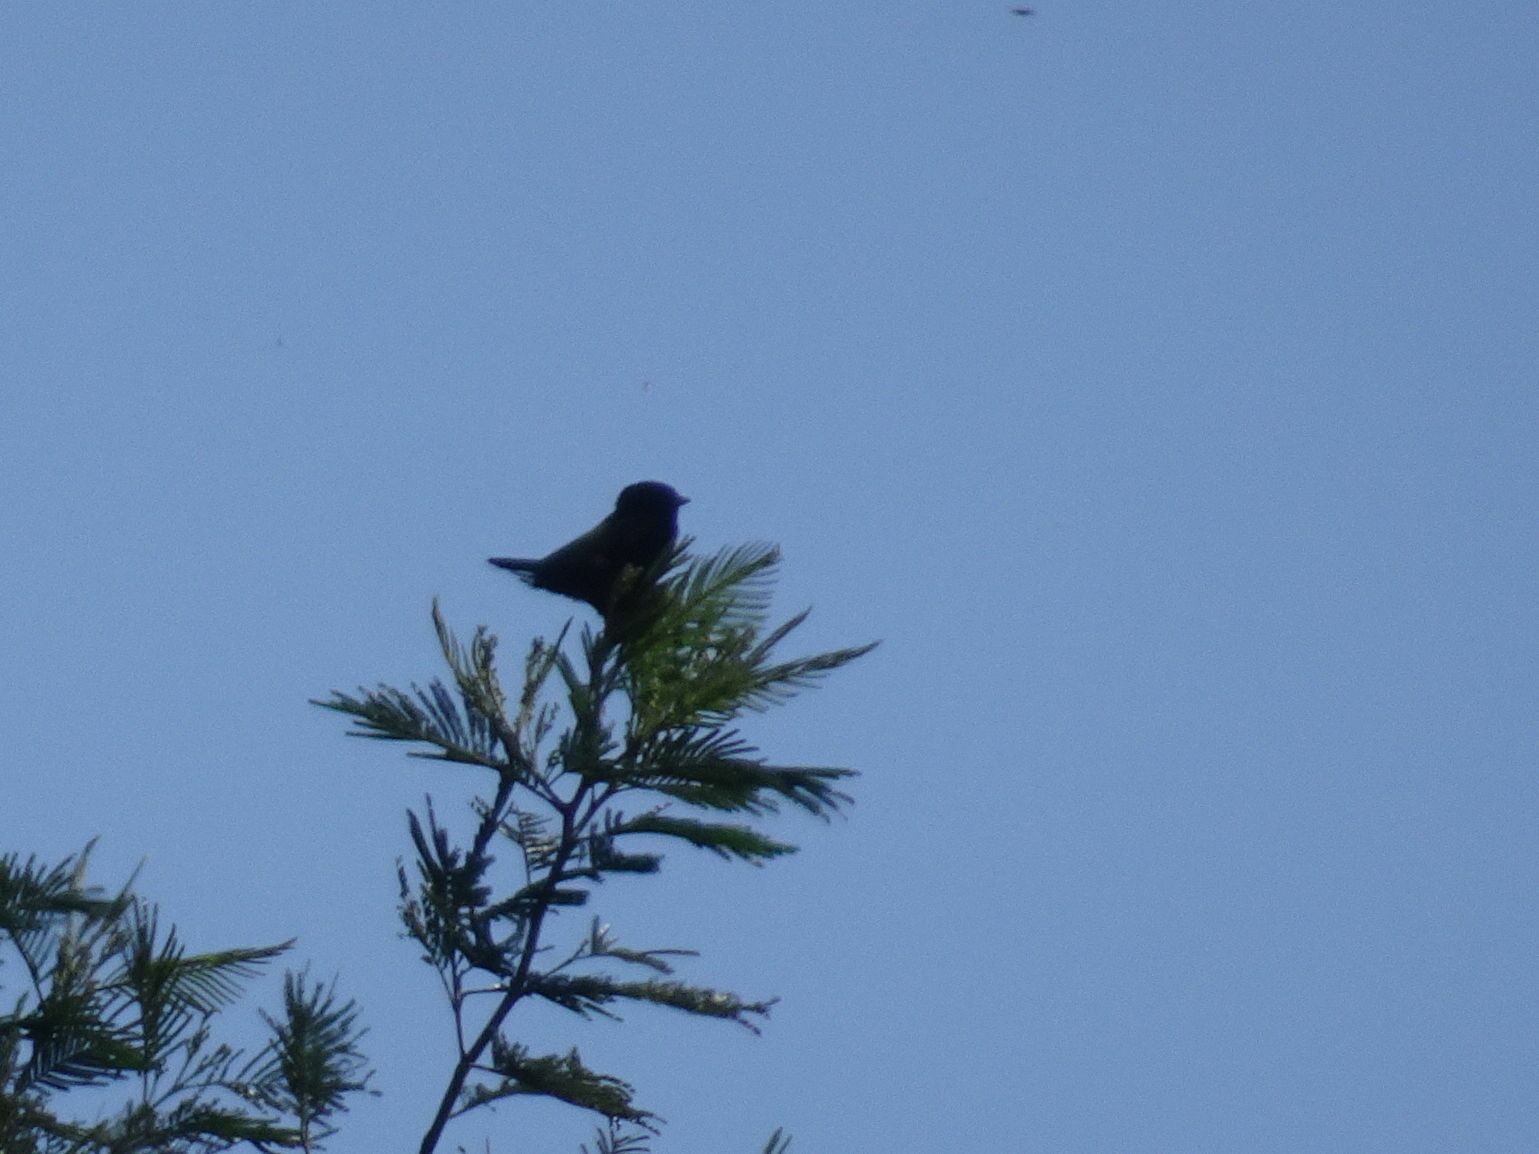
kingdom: Animalia
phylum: Chordata
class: Aves
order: Passeriformes
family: Ploceidae
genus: Euplectes
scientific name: Euplectes capensis
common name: Yellow bishop
